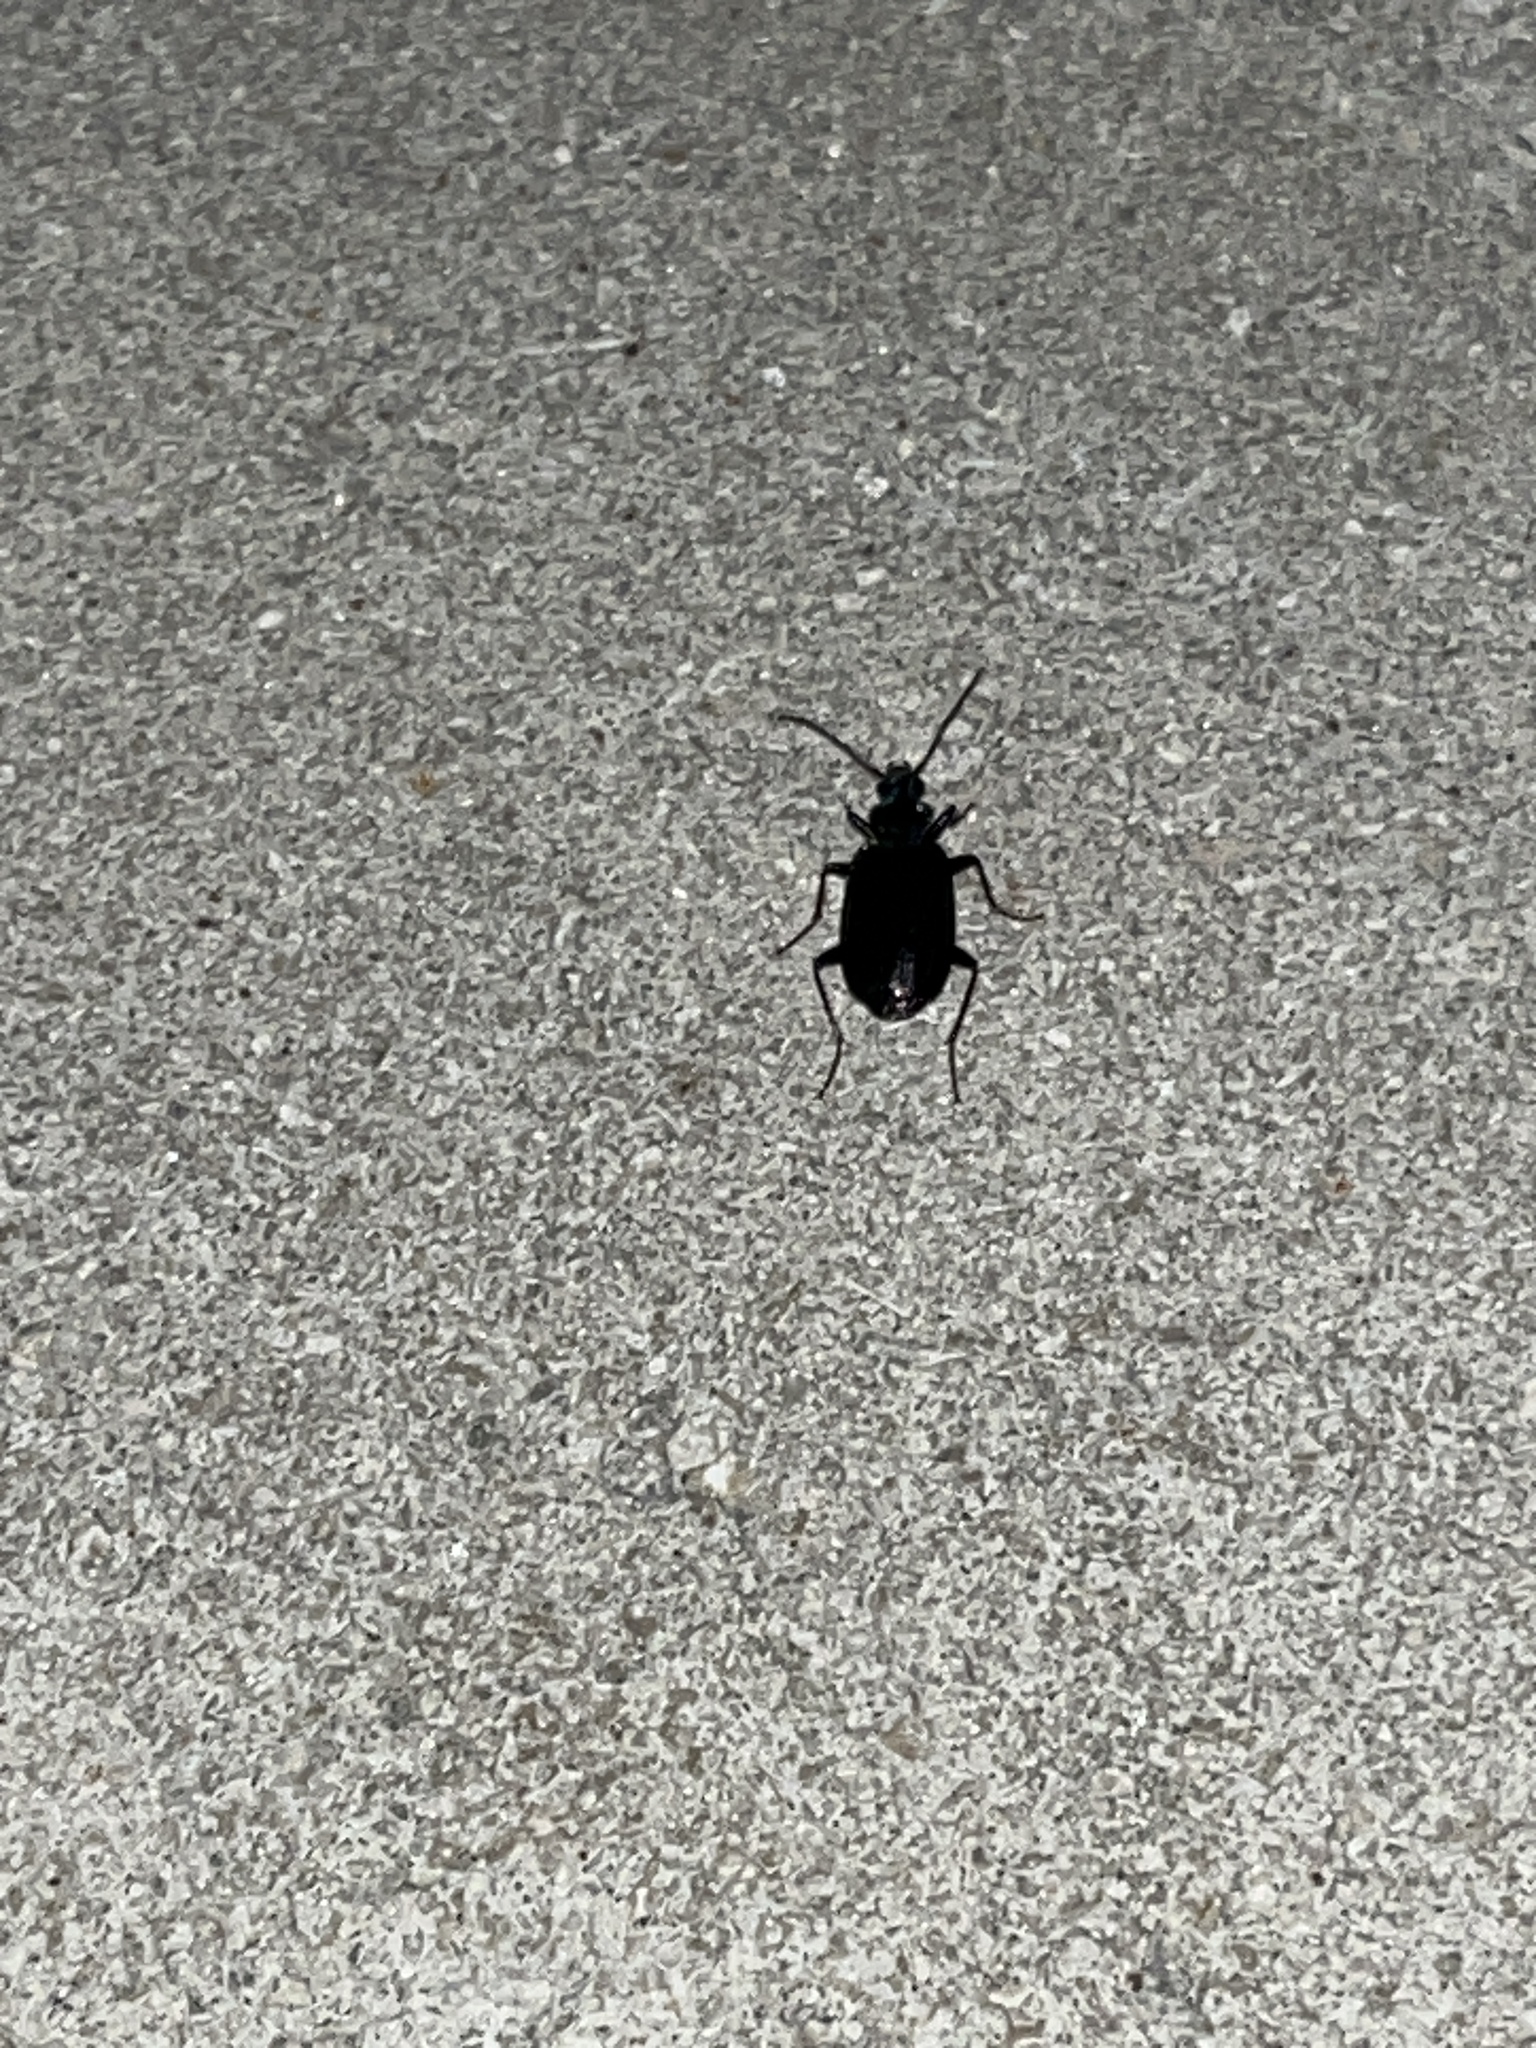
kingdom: Animalia
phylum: Arthropoda
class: Insecta
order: Coleoptera
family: Carabidae
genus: Platynus
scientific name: Platynus cincticollis
